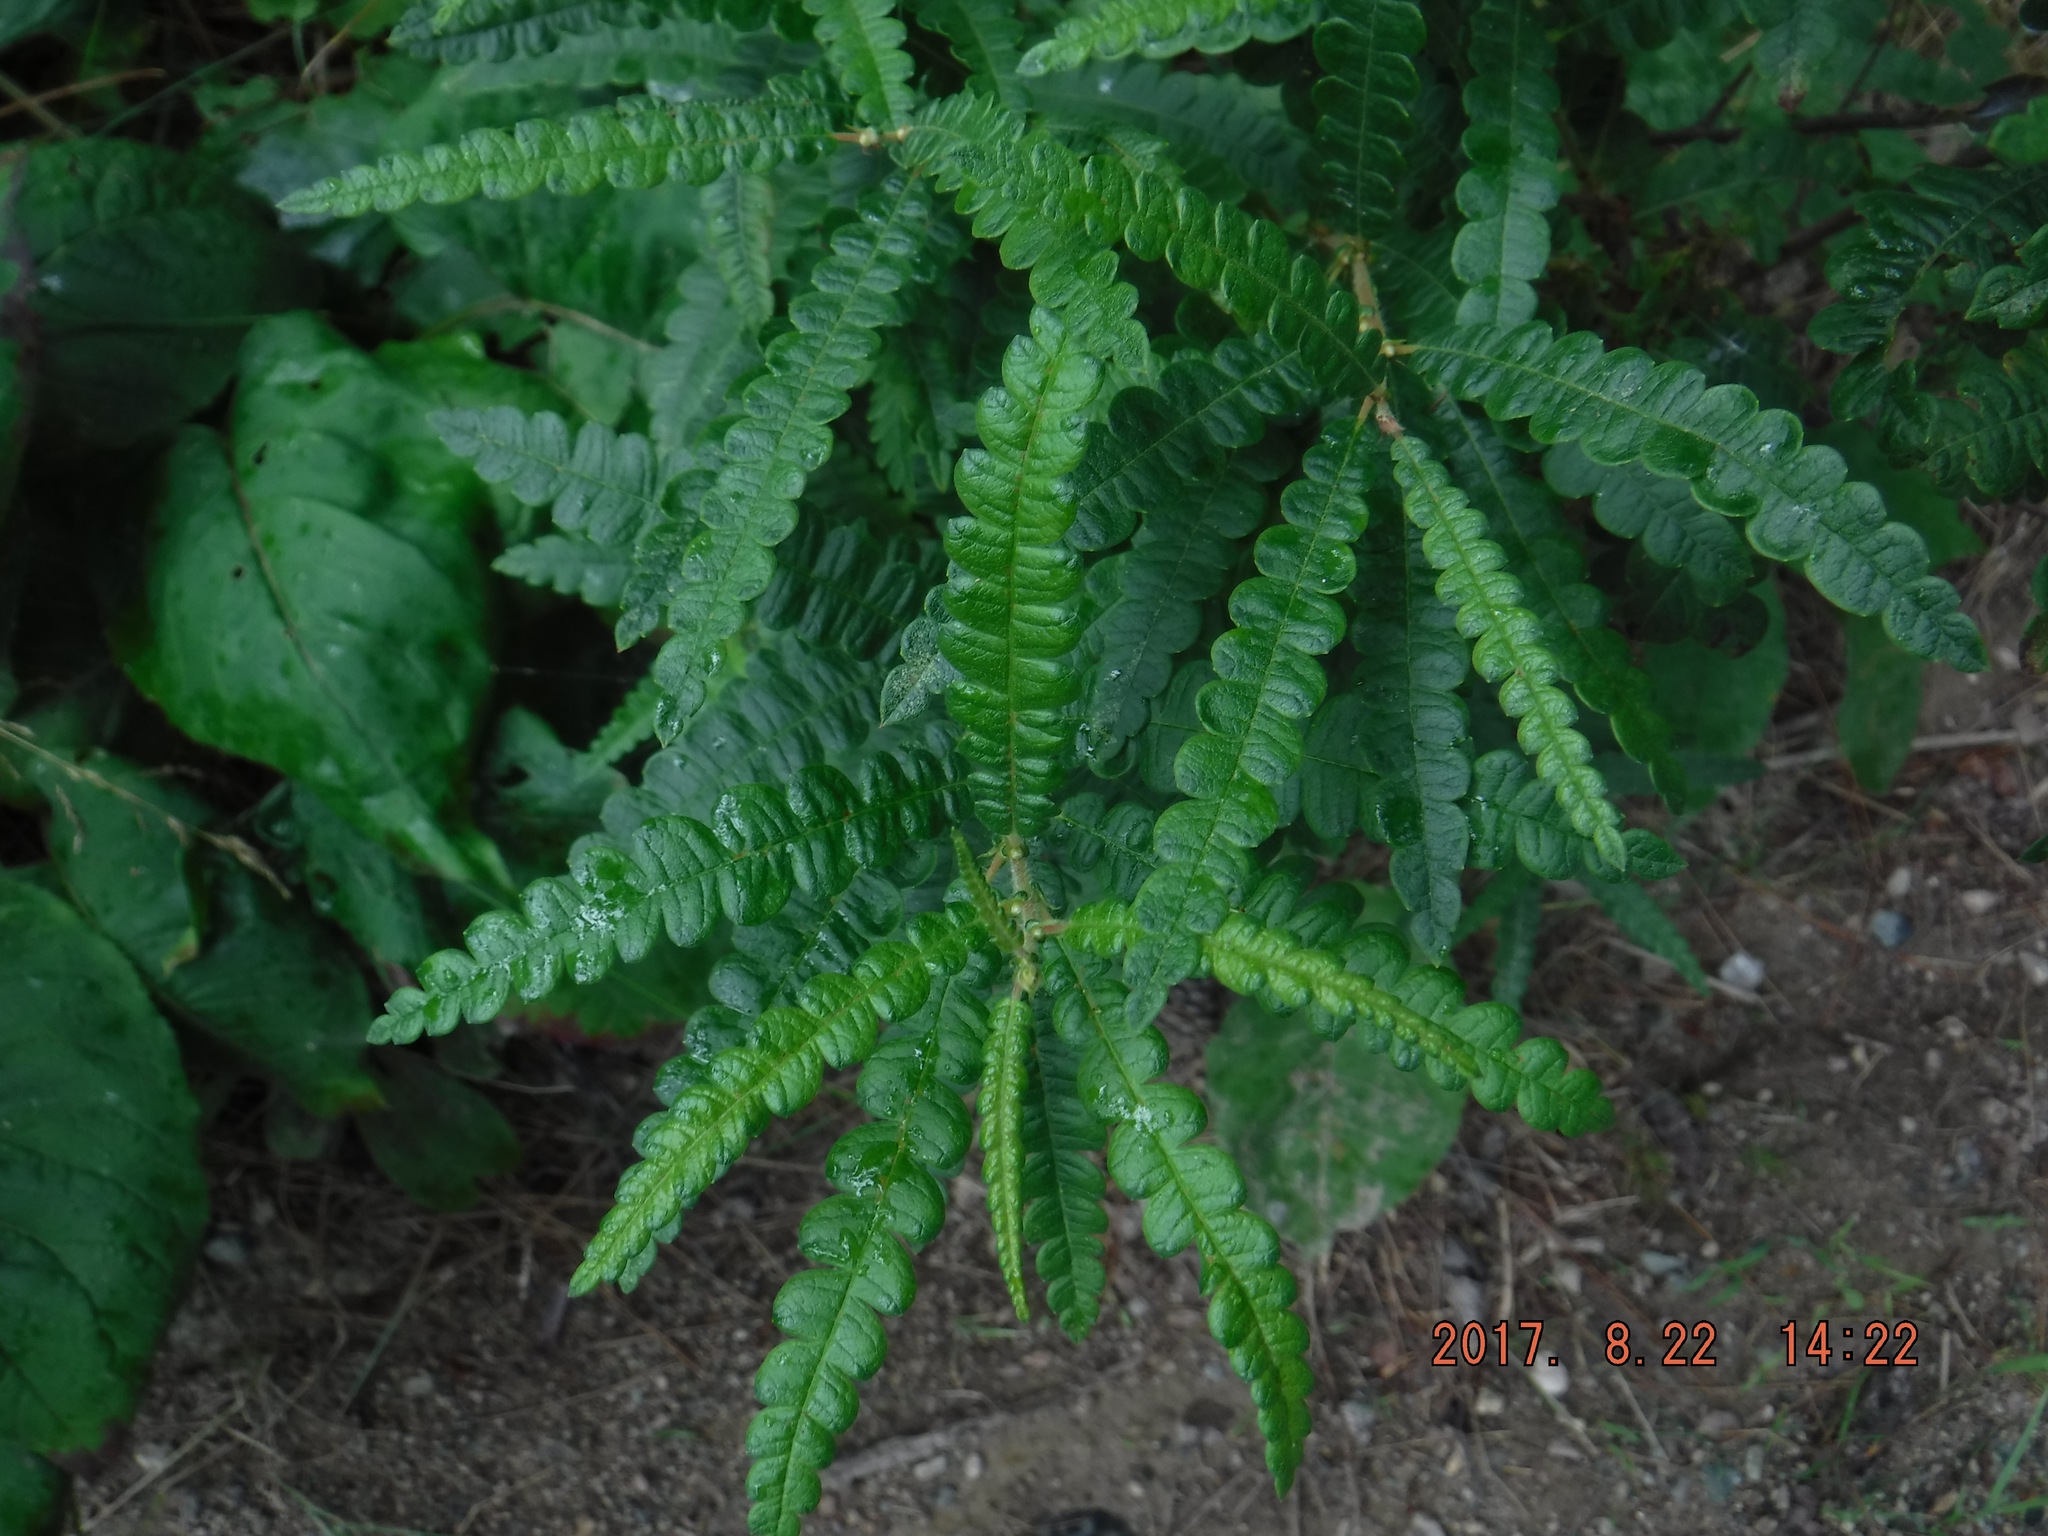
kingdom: Plantae
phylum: Tracheophyta
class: Magnoliopsida
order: Fagales
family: Myricaceae
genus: Comptonia
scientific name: Comptonia peregrina
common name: Sweet-fern
